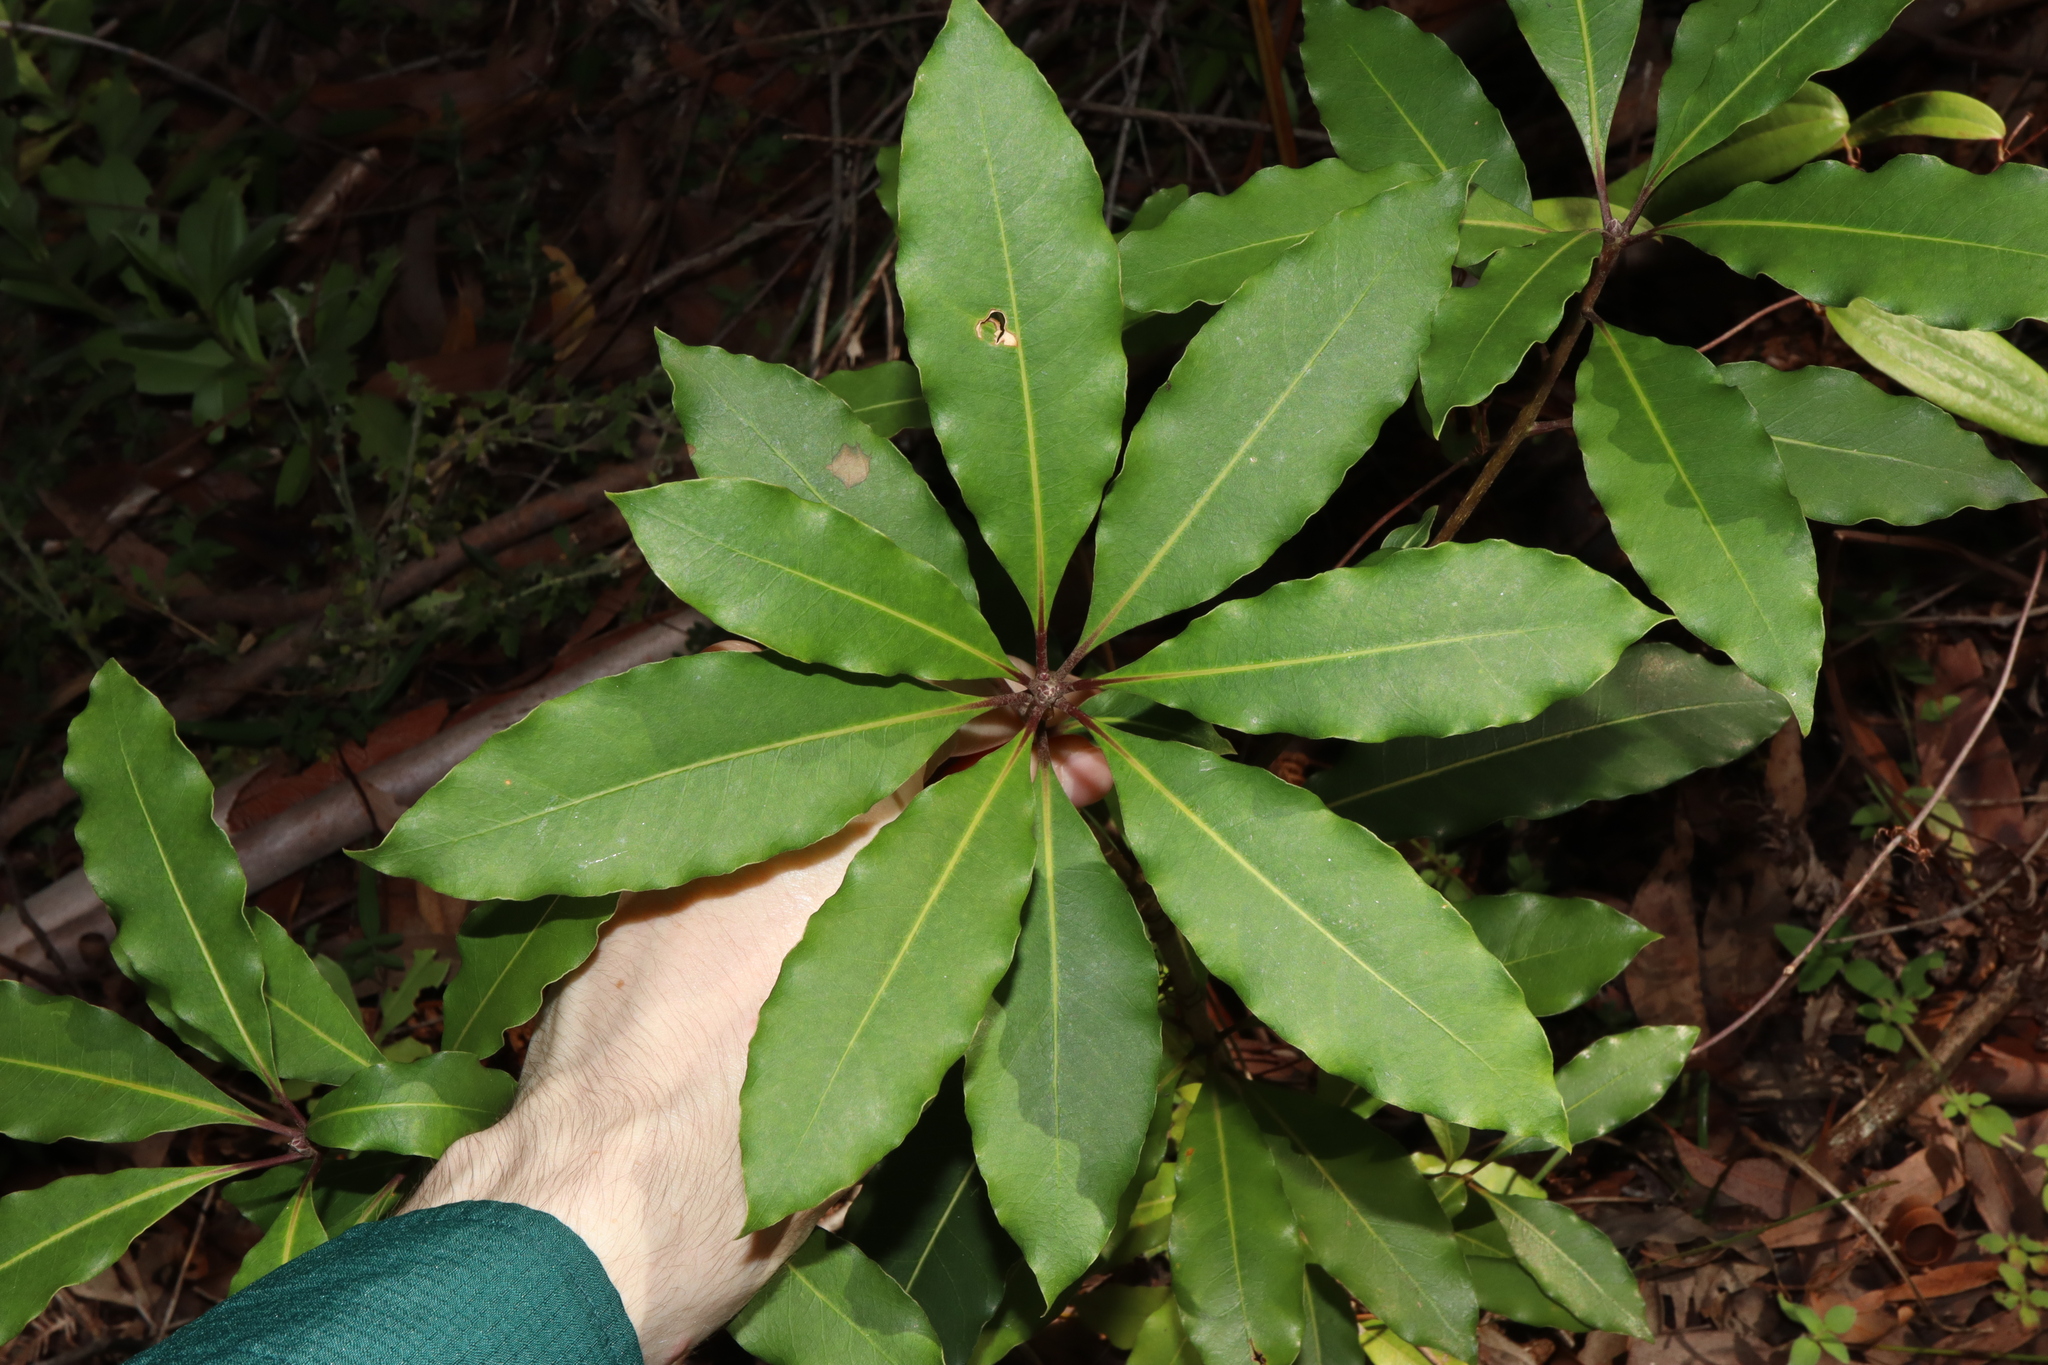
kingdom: Plantae
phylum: Tracheophyta
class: Magnoliopsida
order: Apiales
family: Pittosporaceae
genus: Pittosporum
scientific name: Pittosporum undulatum
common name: Australian cheesewood
